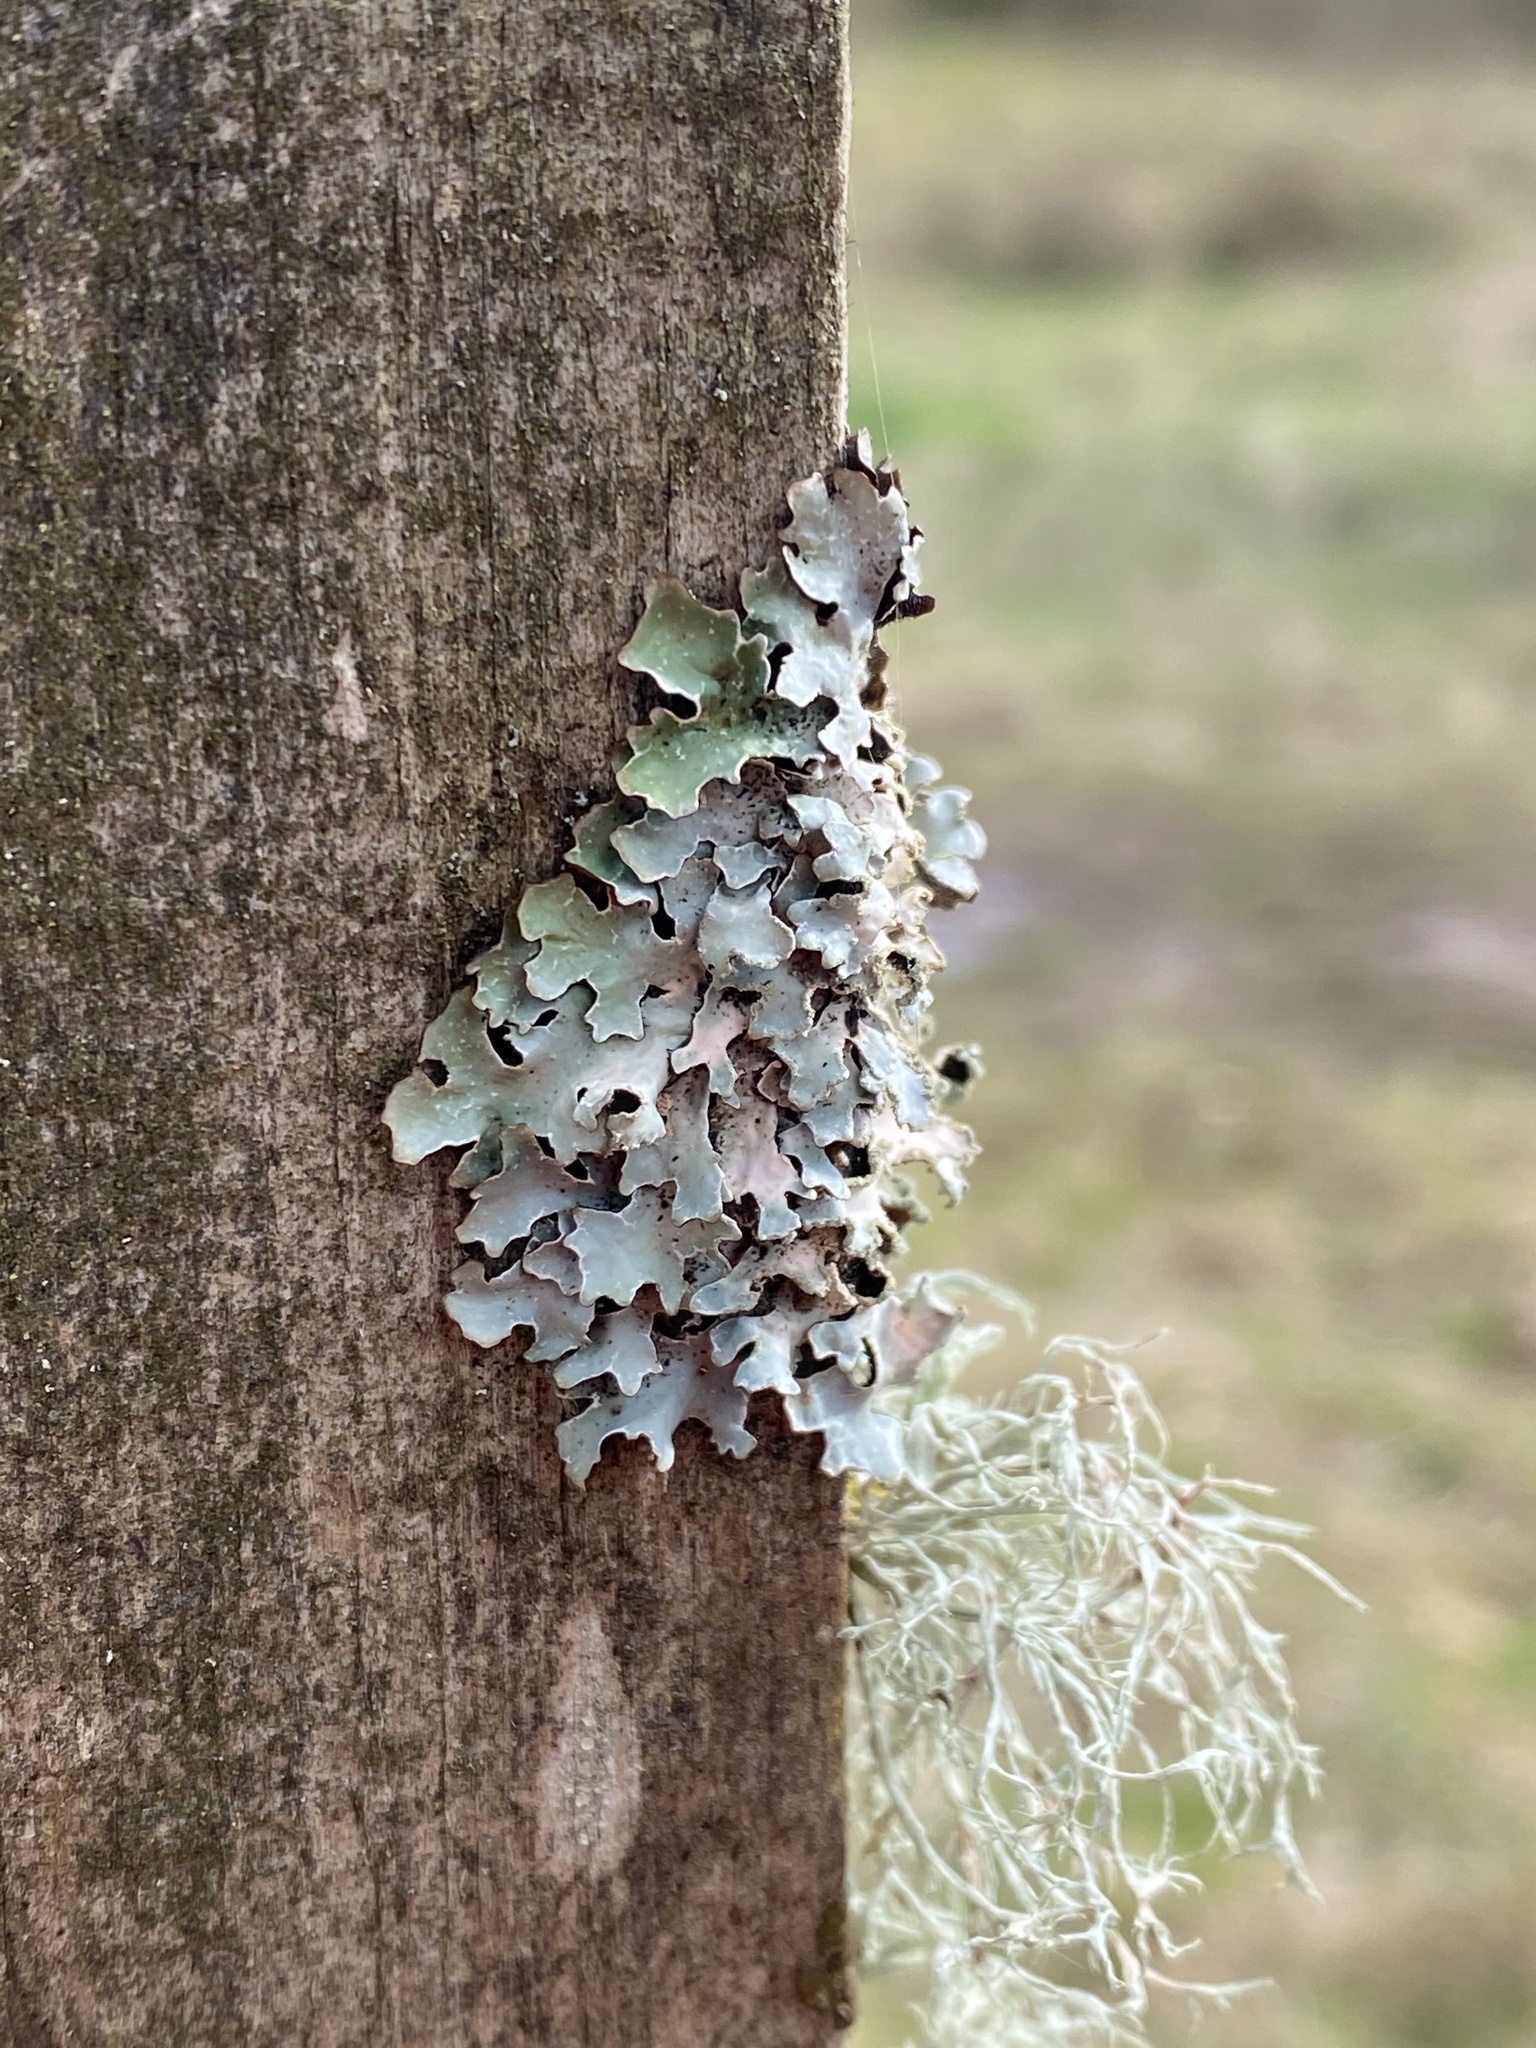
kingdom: Fungi
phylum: Ascomycota
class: Lecanoromycetes
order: Lecanorales
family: Parmeliaceae
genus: Parmelia
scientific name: Parmelia sulcata
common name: Netted shield lichen
